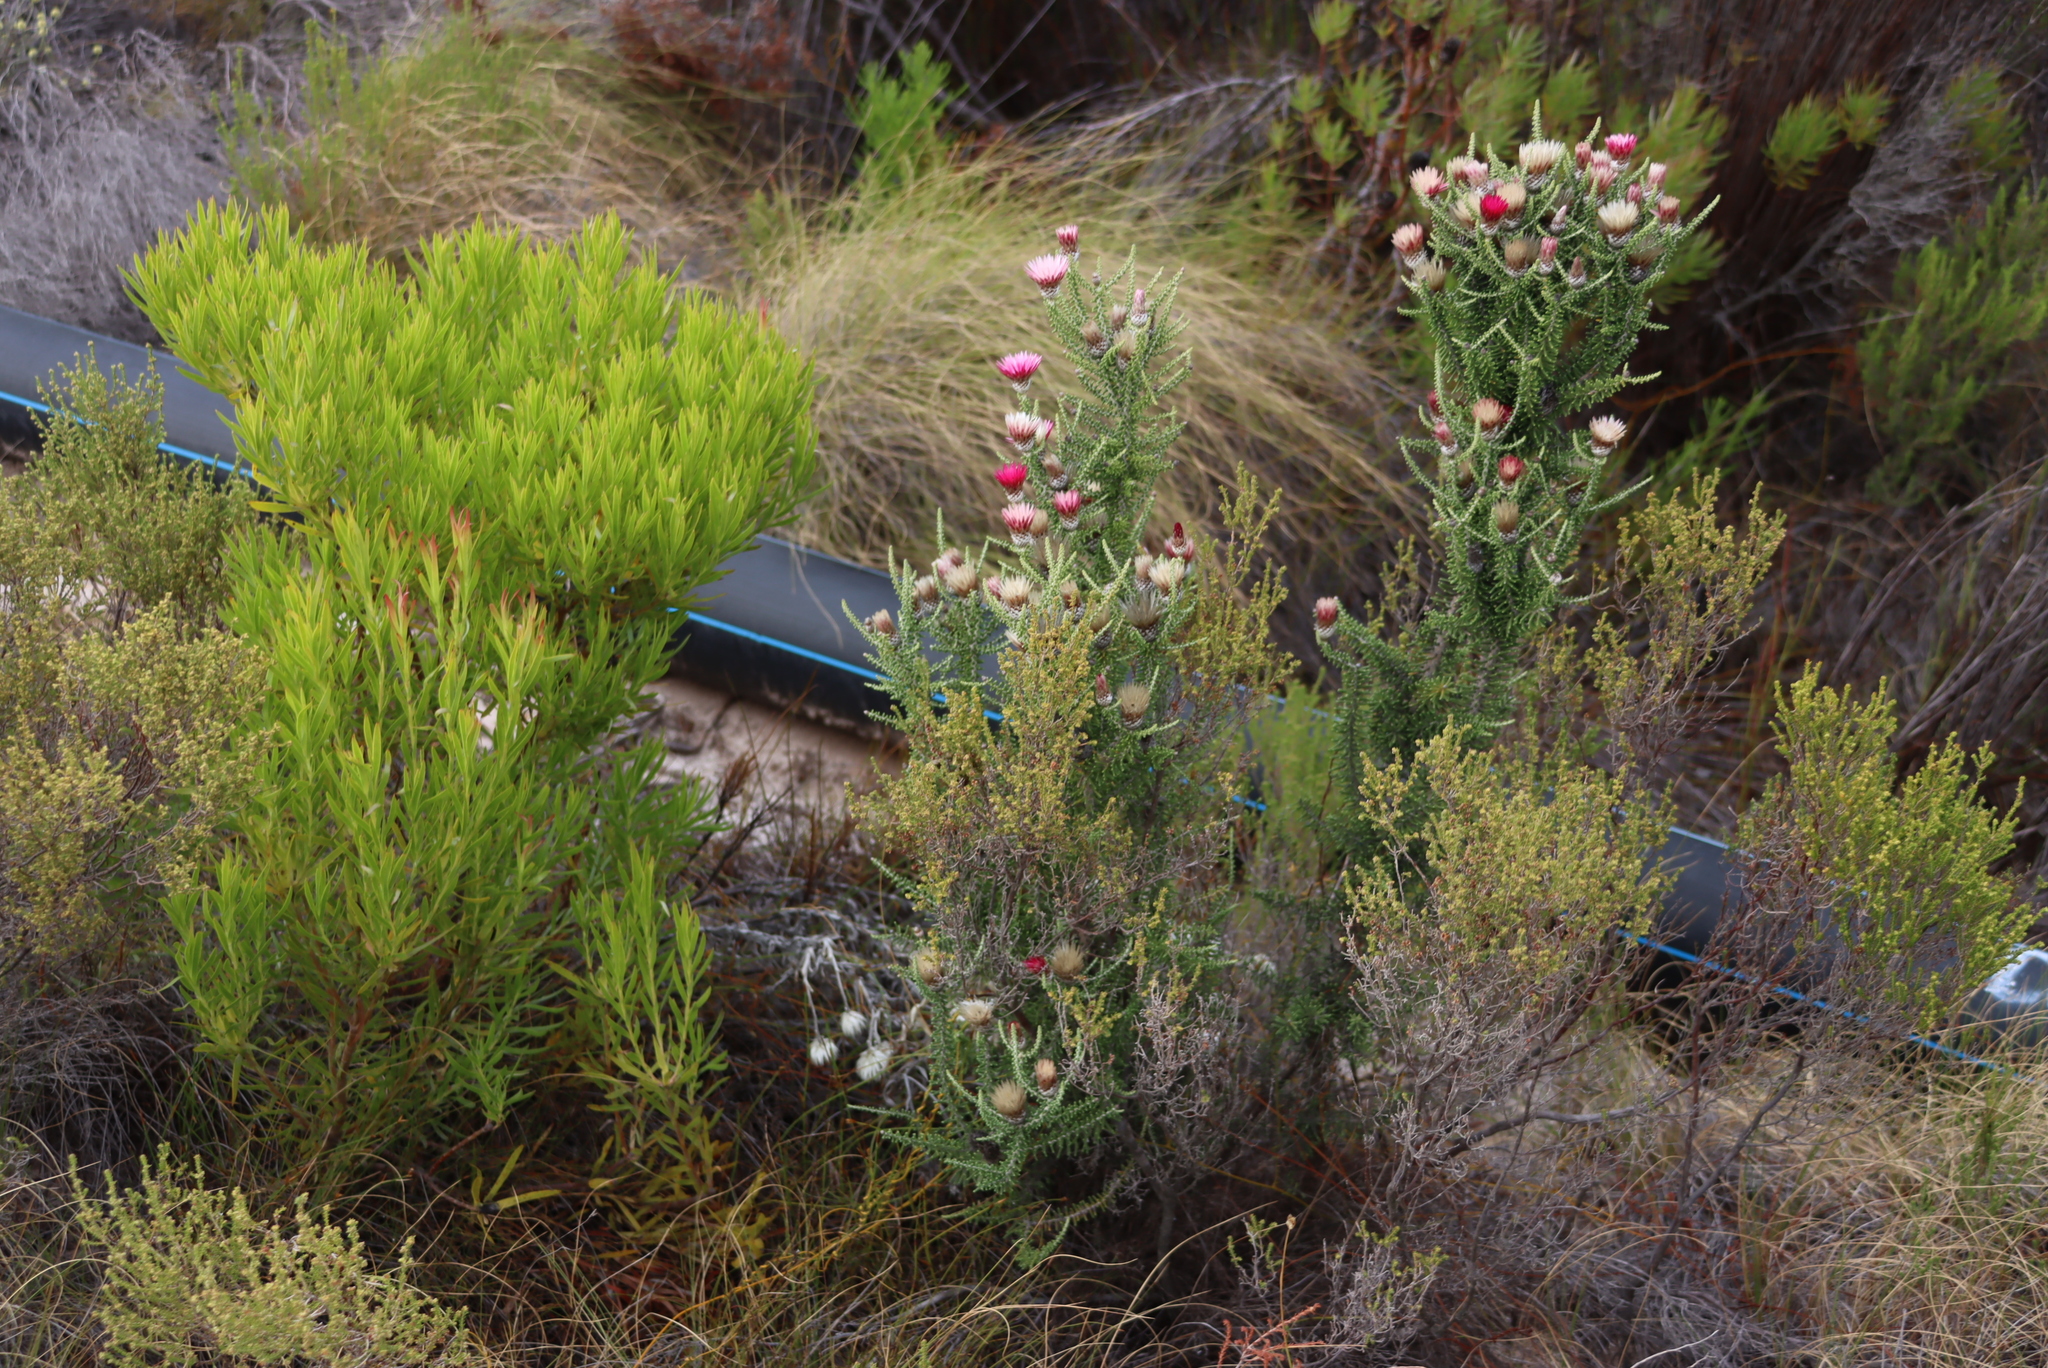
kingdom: Plantae
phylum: Tracheophyta
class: Magnoliopsida
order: Asterales
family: Asteraceae
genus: Phaenocoma
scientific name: Phaenocoma prolifera
